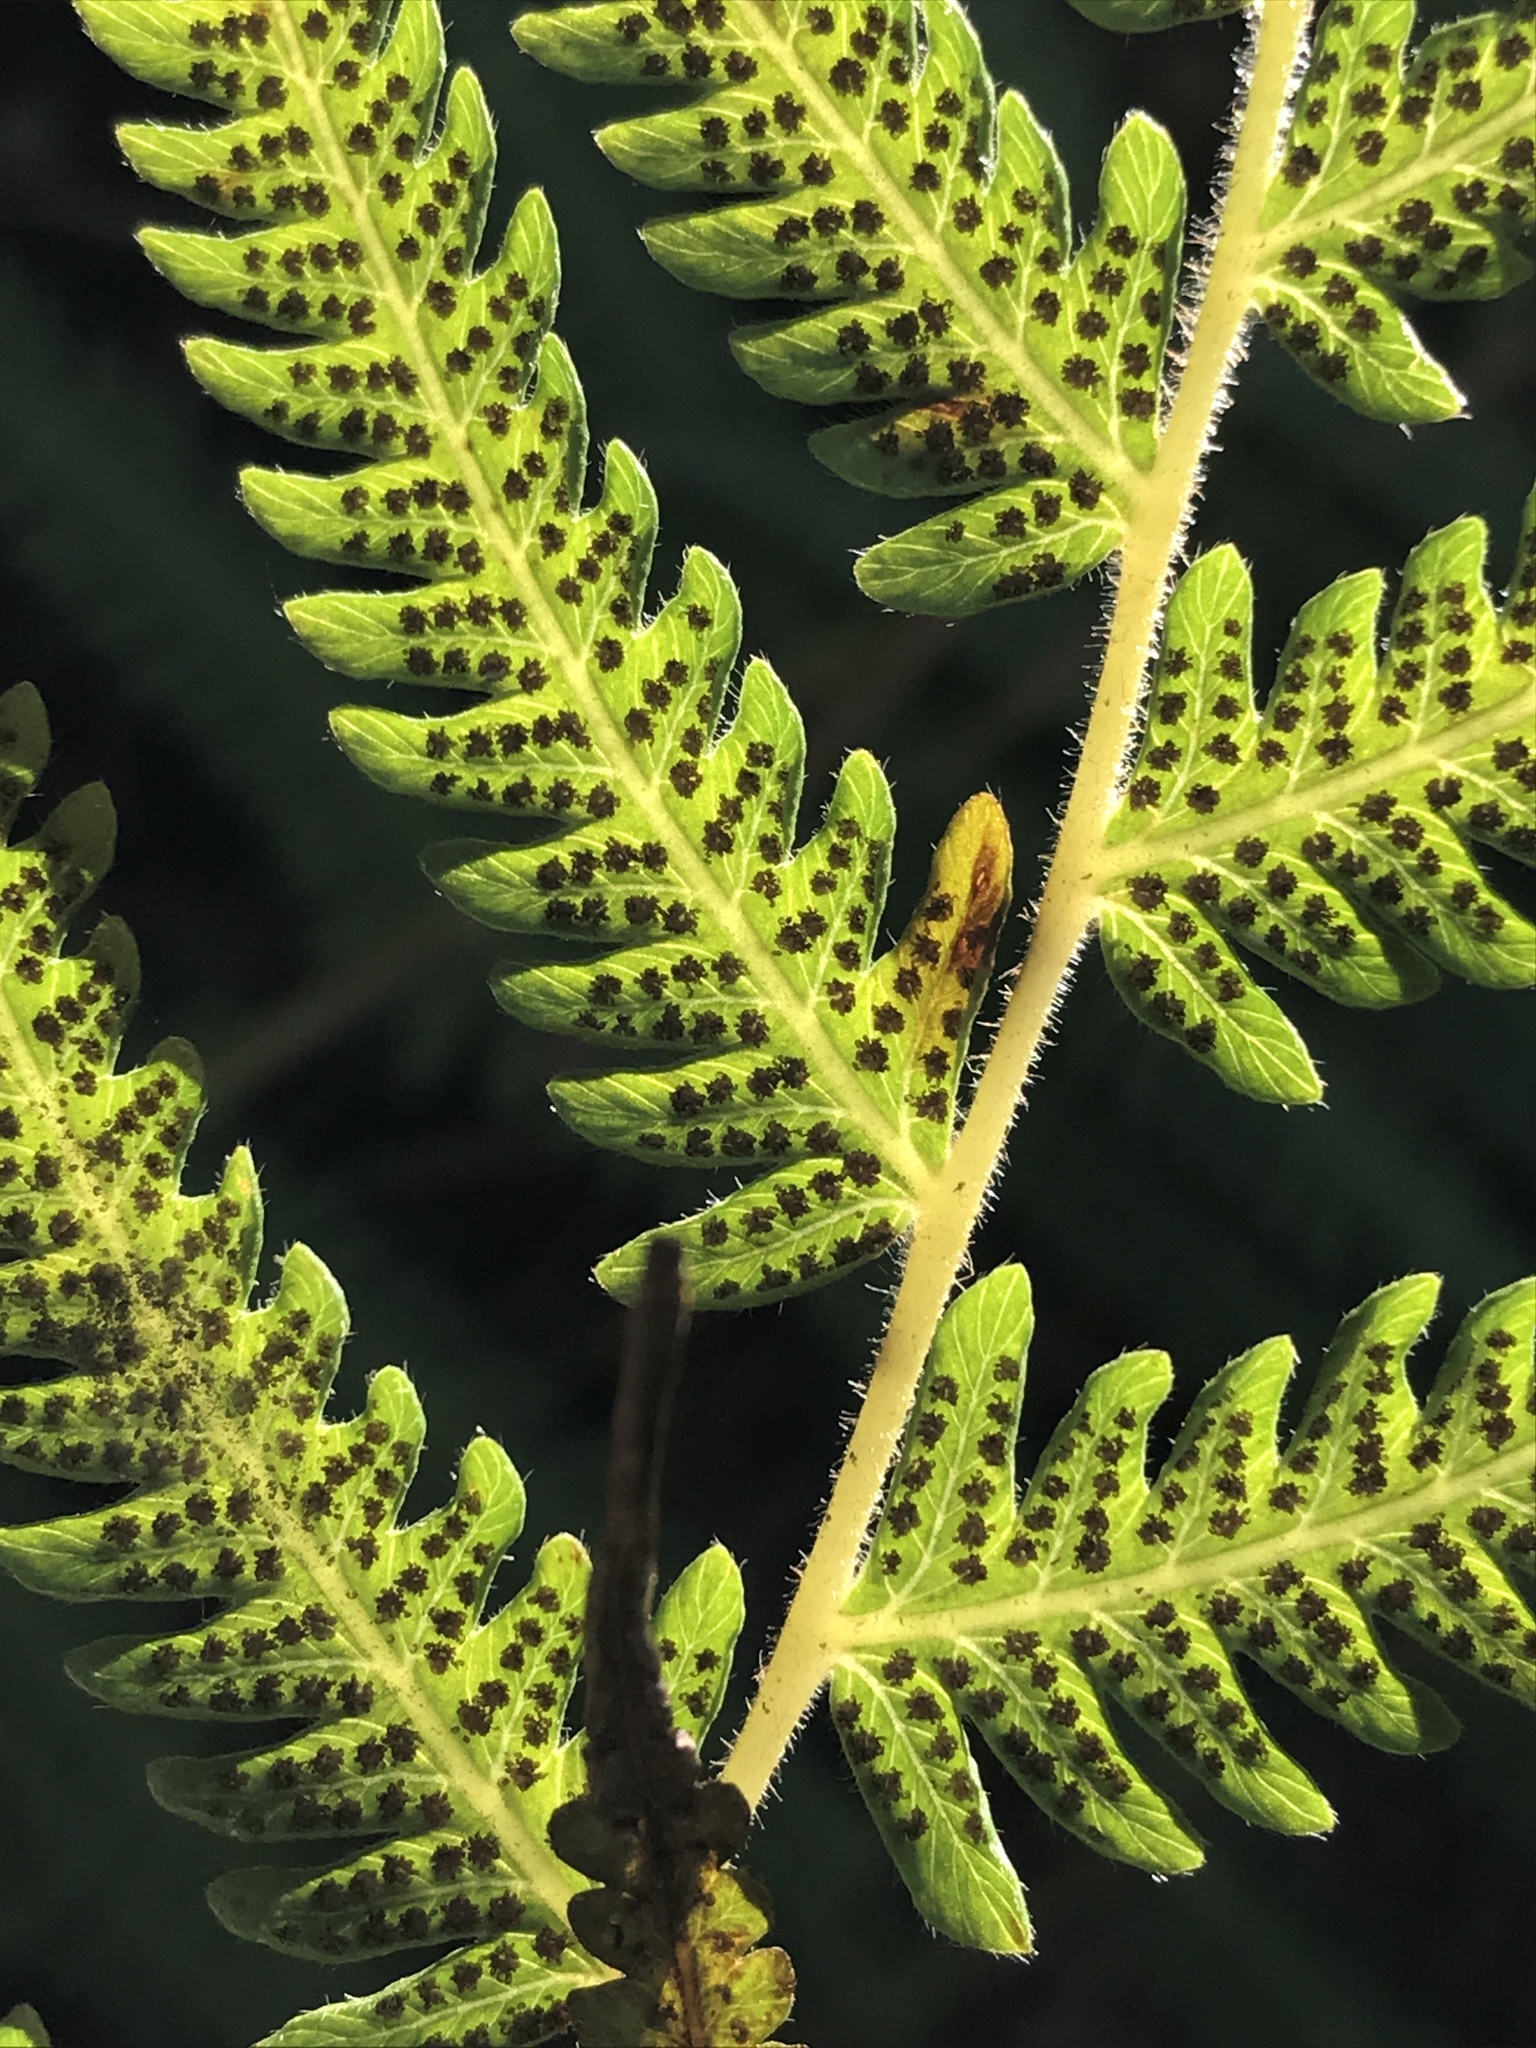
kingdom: Plantae
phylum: Tracheophyta
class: Polypodiopsida
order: Polypodiales
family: Thelypteridaceae
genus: Pelazoneuron
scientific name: Pelazoneuron kunthii
